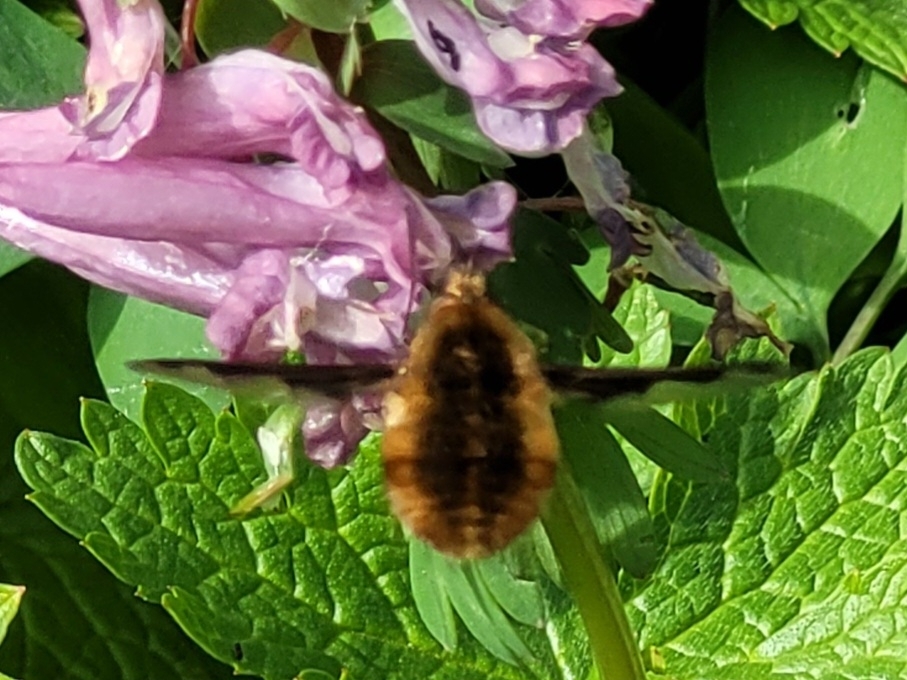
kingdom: Animalia
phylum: Arthropoda
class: Insecta
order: Diptera
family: Bombyliidae
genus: Bombylius
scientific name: Bombylius major
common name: Bee fly
